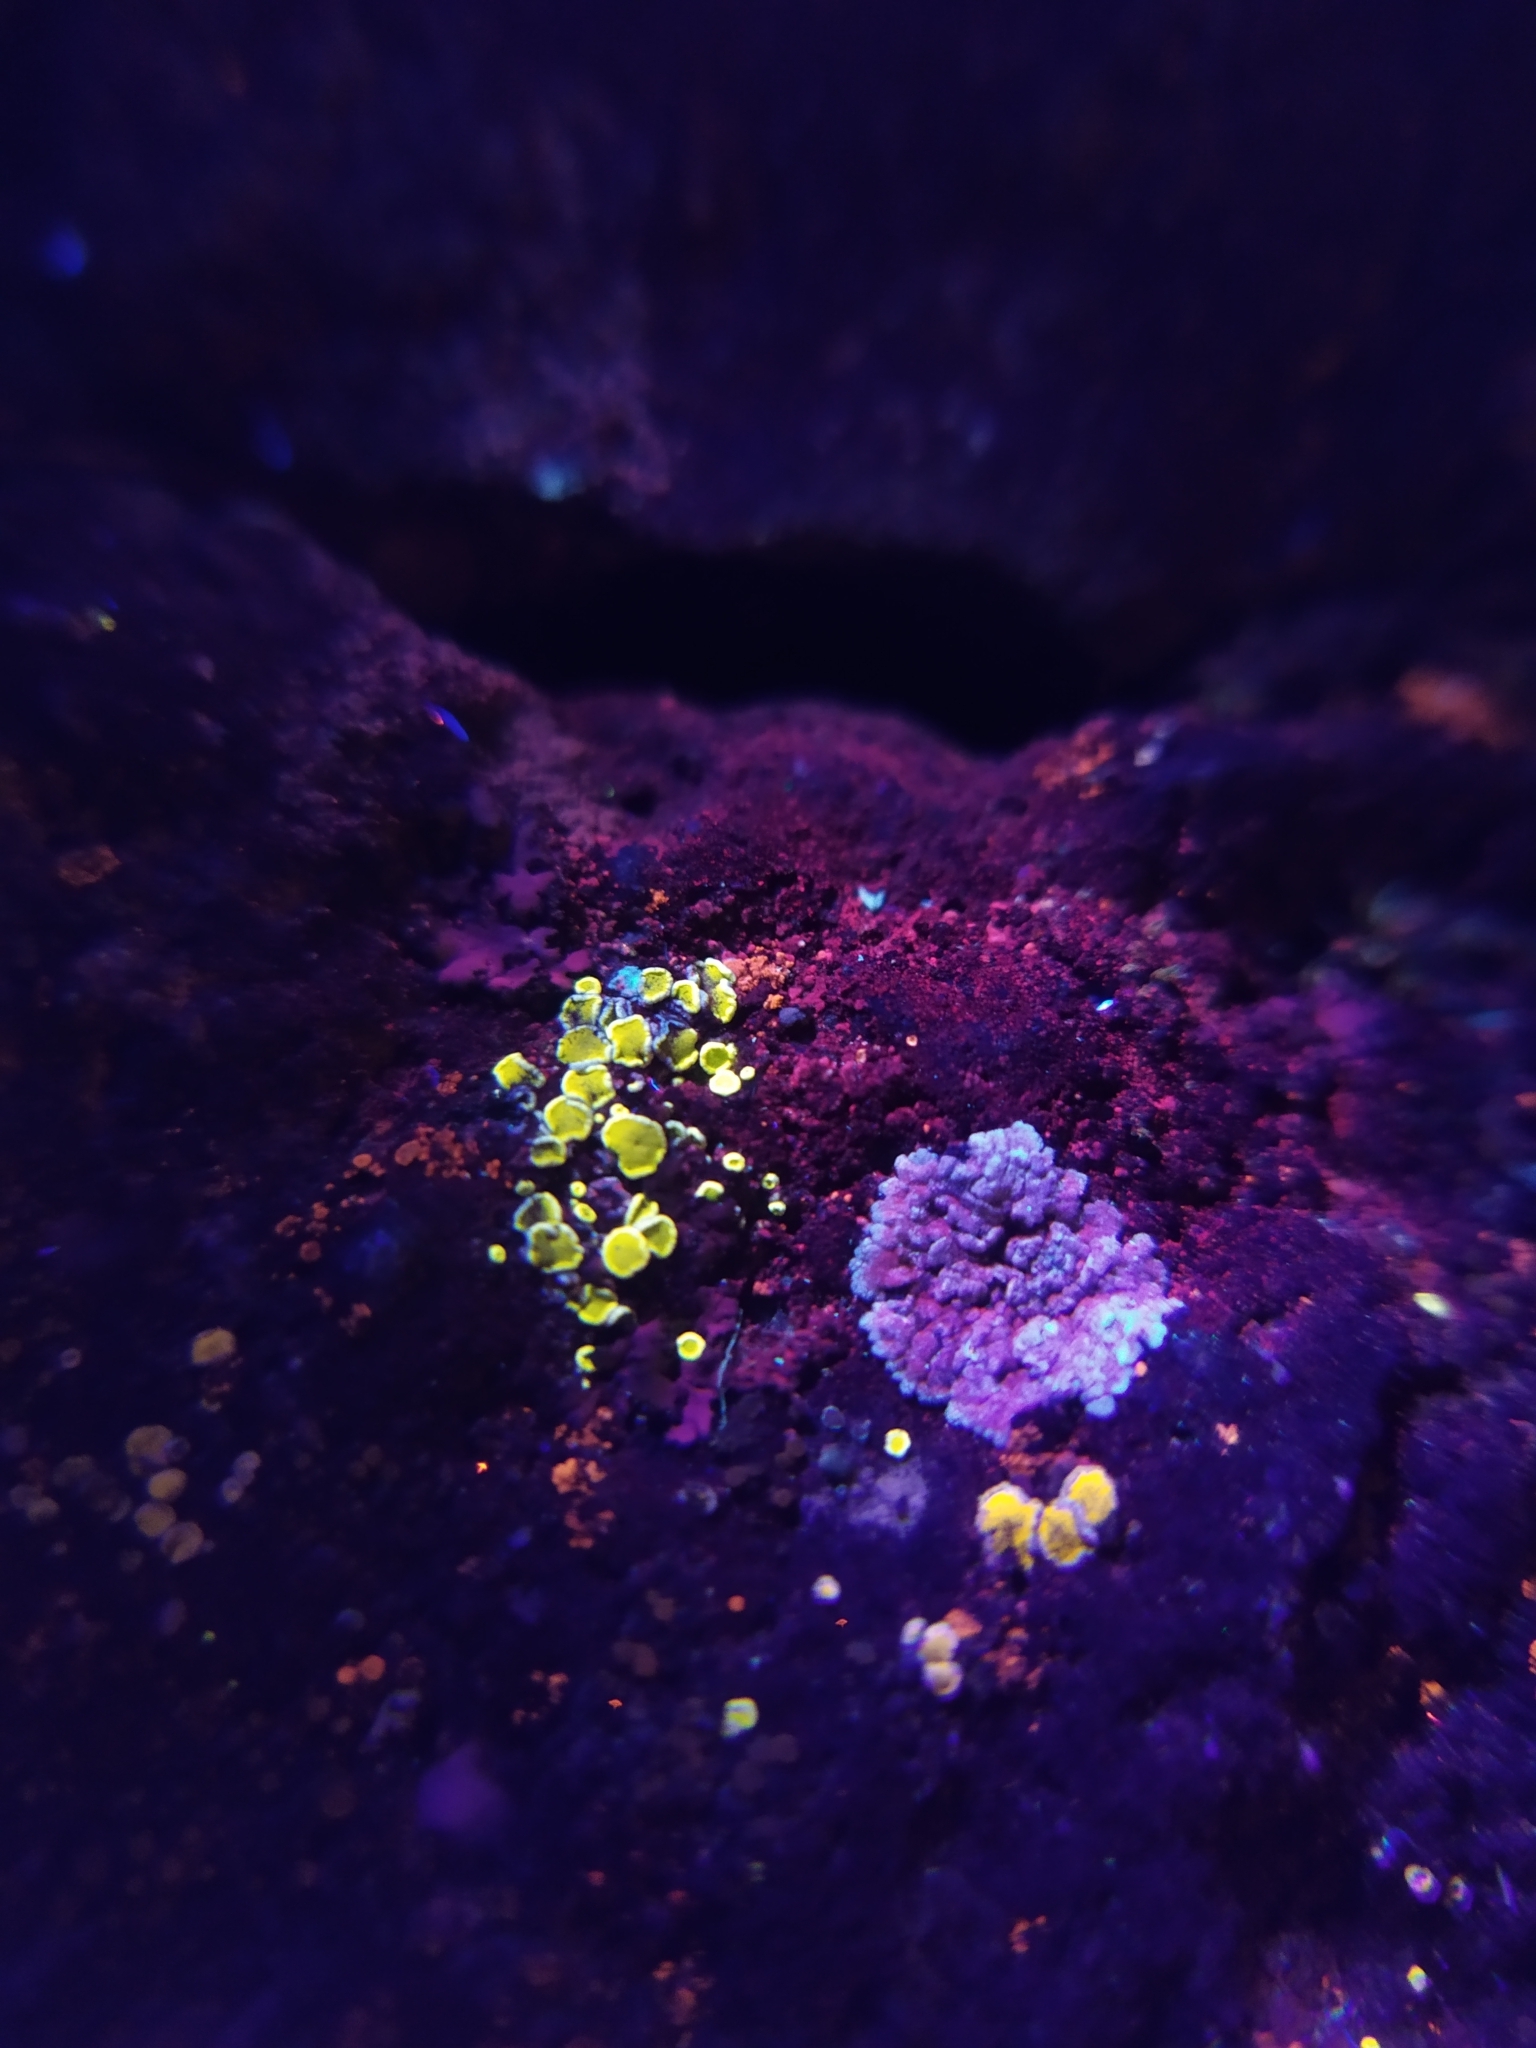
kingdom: Fungi
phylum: Ascomycota
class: Lecanoromycetes
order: Lecanorales
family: Lecanoraceae
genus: Polyozosia
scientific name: Polyozosia semipallida
